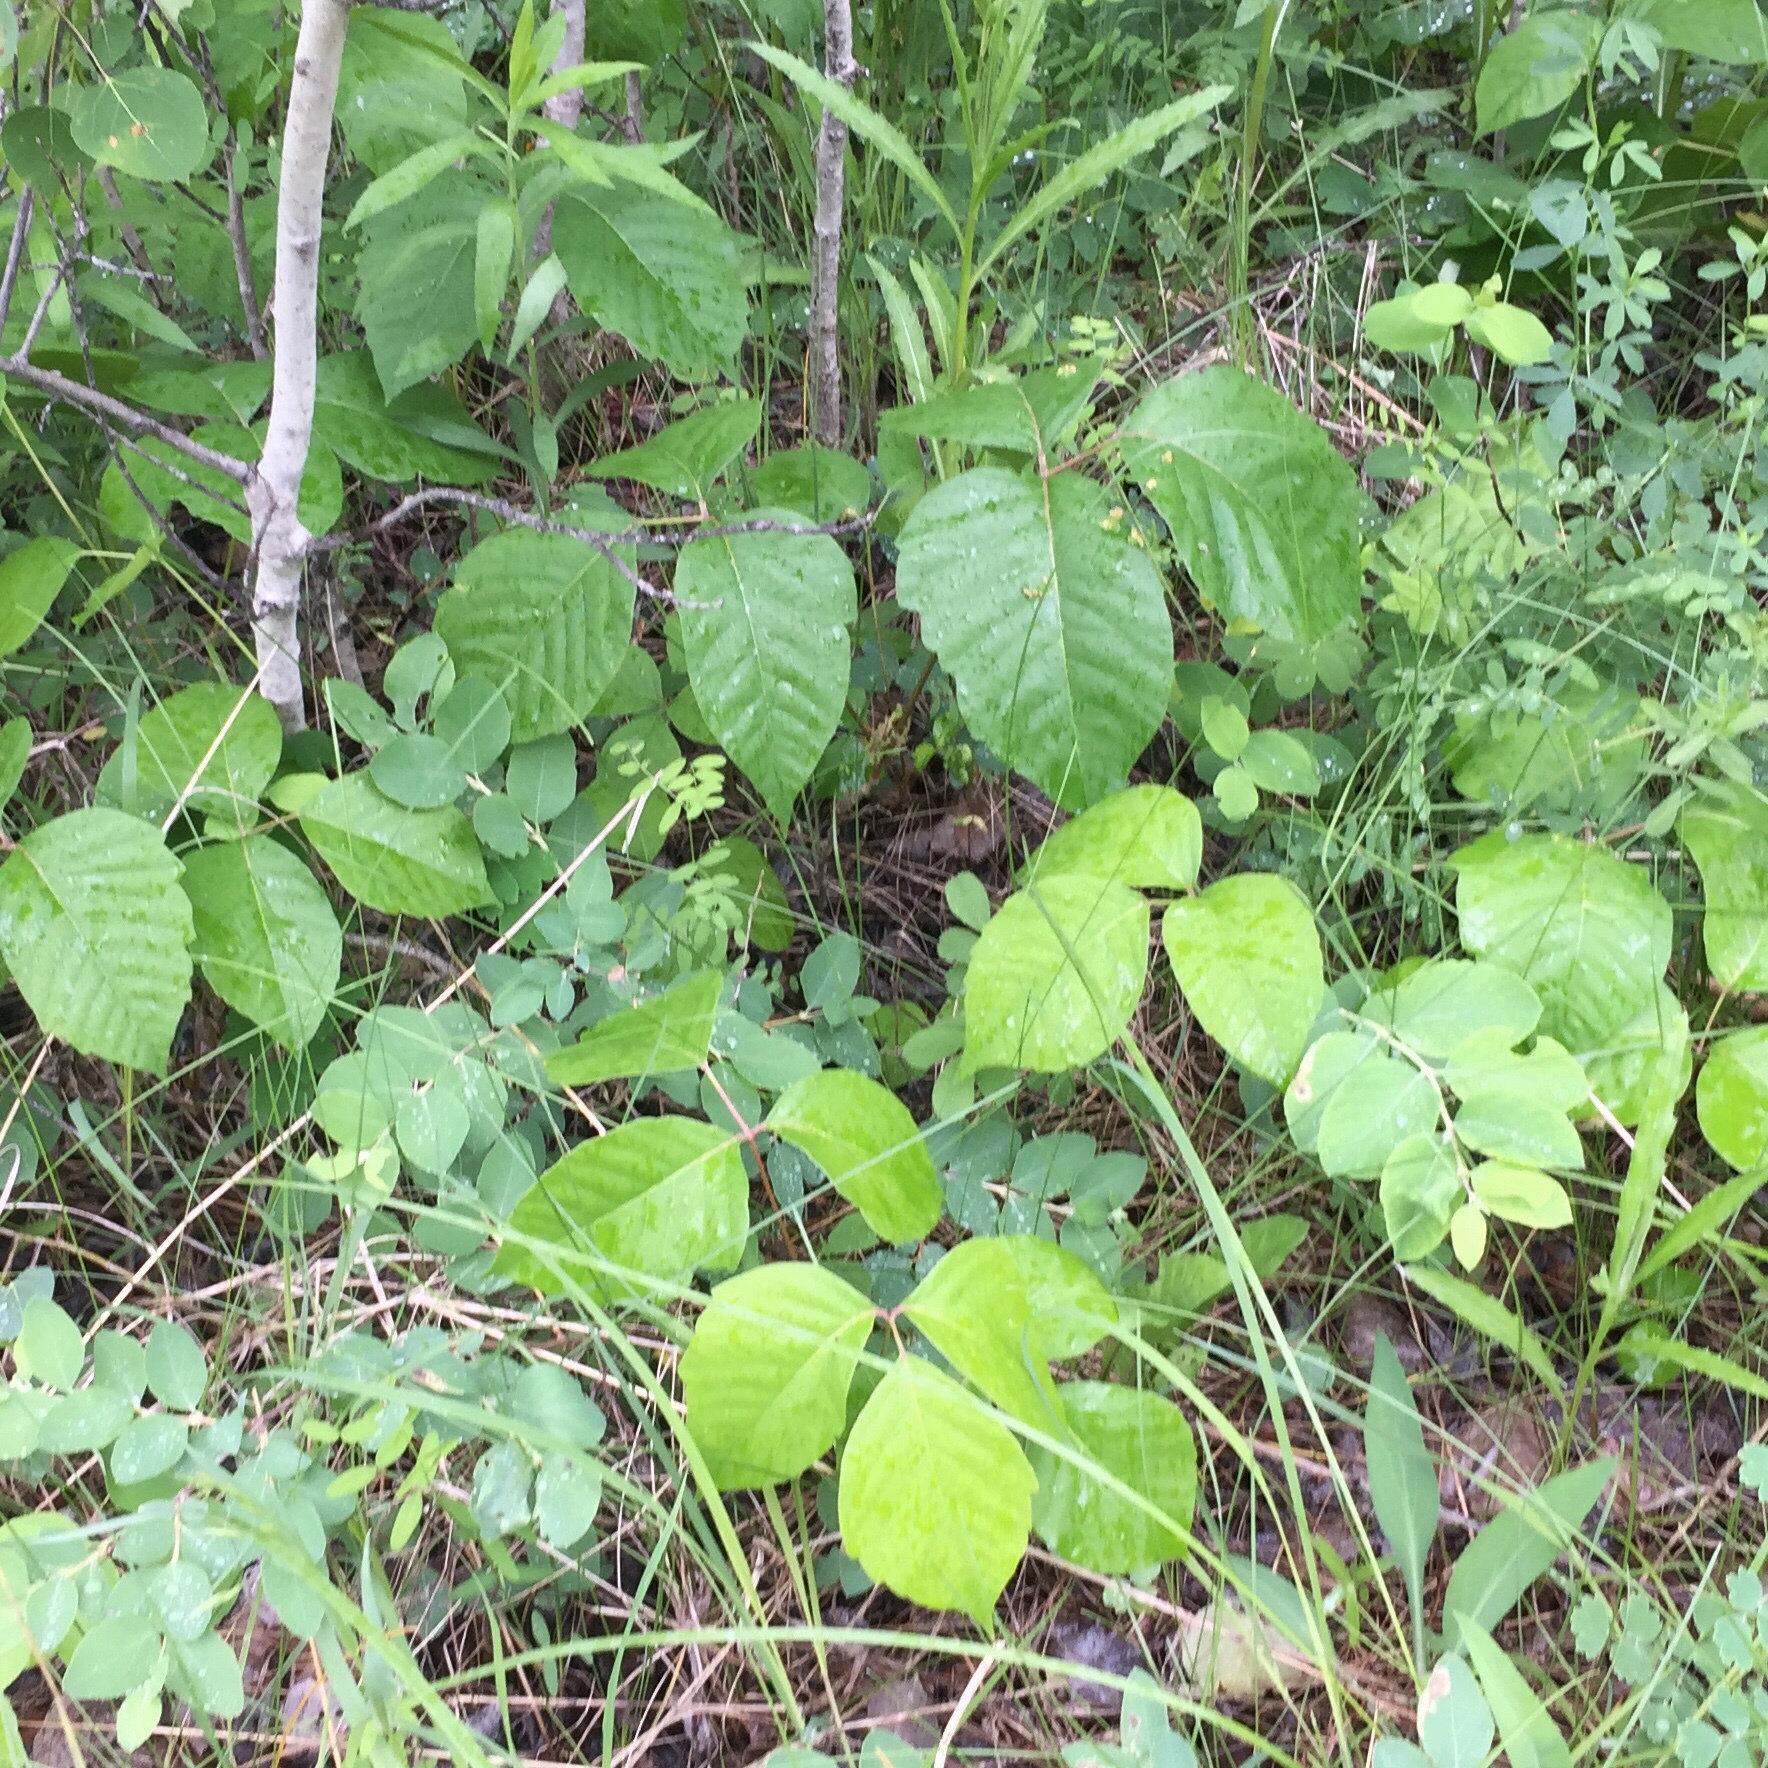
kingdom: Plantae
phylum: Tracheophyta
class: Magnoliopsida
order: Sapindales
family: Anacardiaceae
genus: Toxicodendron
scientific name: Toxicodendron rydbergii
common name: Rydberg's poison-ivy
